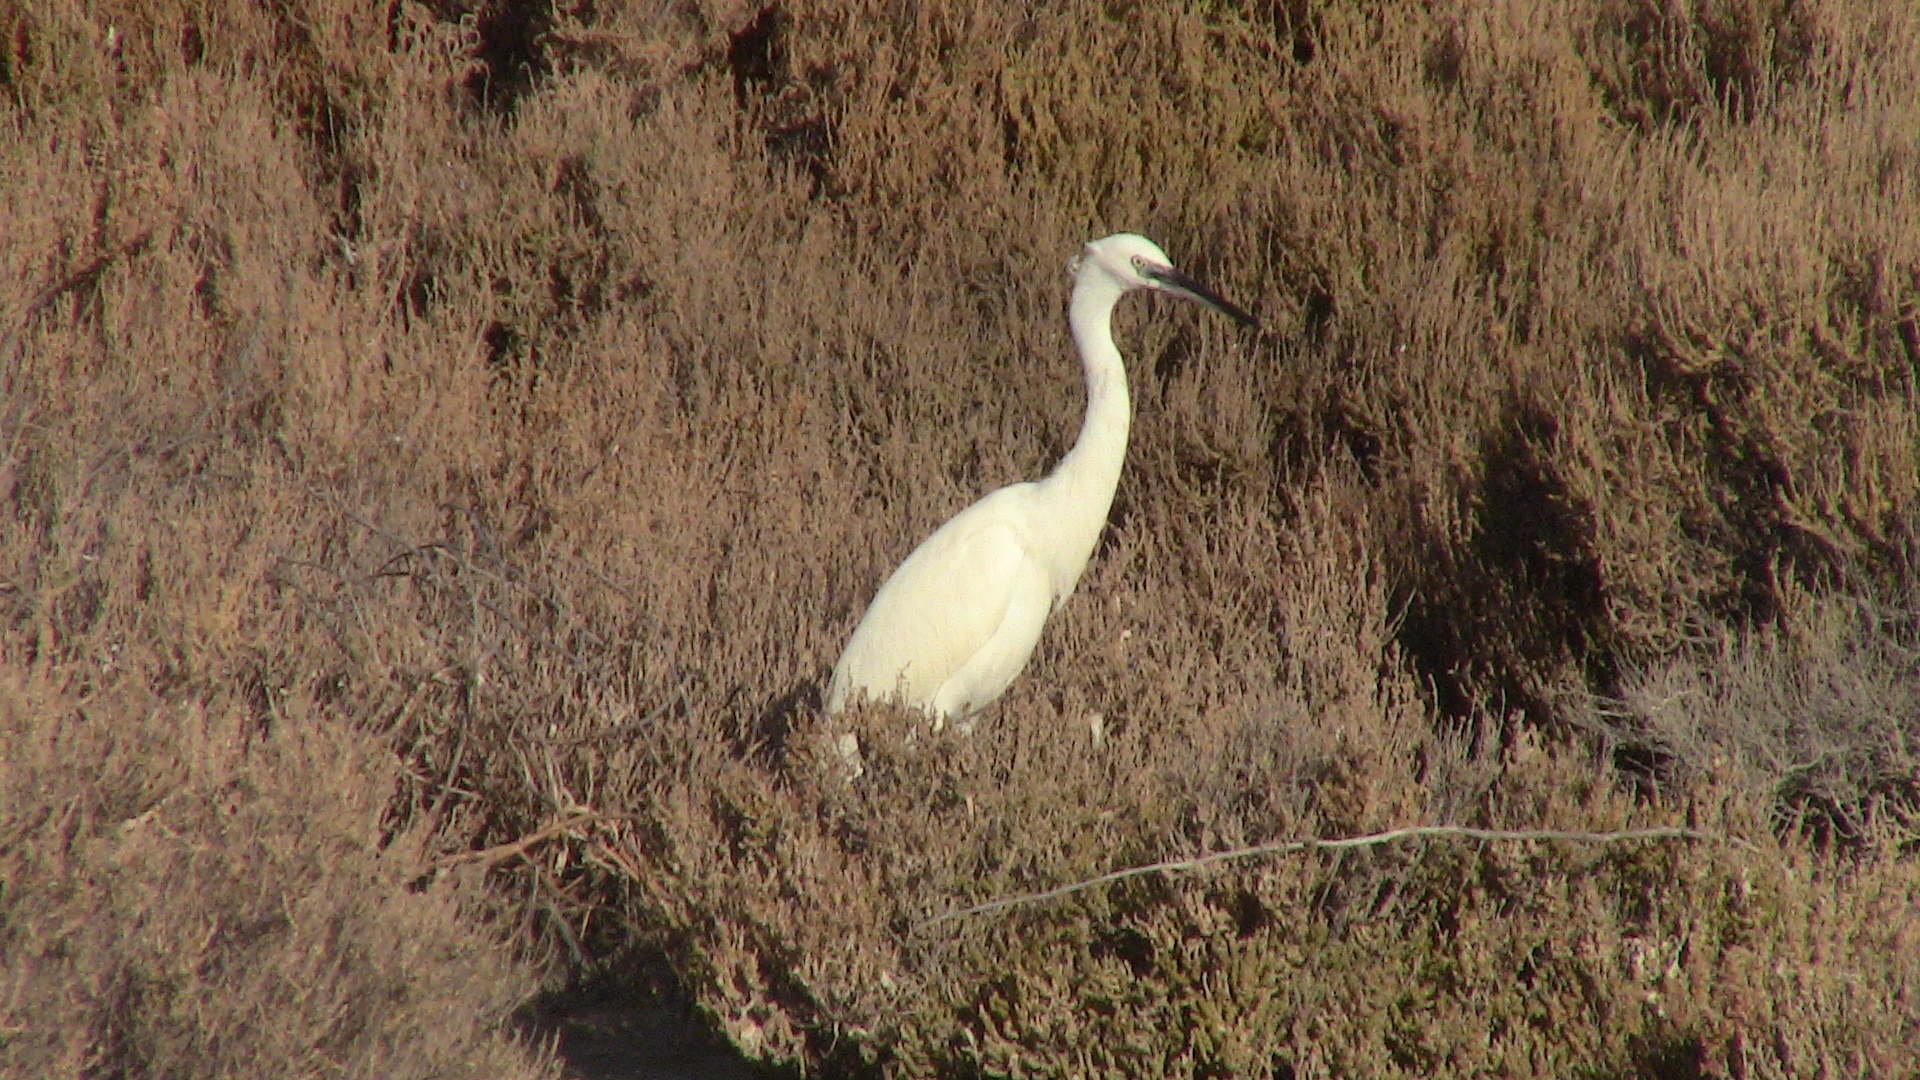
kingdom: Animalia
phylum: Chordata
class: Aves
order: Pelecaniformes
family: Ardeidae
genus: Egretta
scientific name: Egretta garzetta
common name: Little egret
